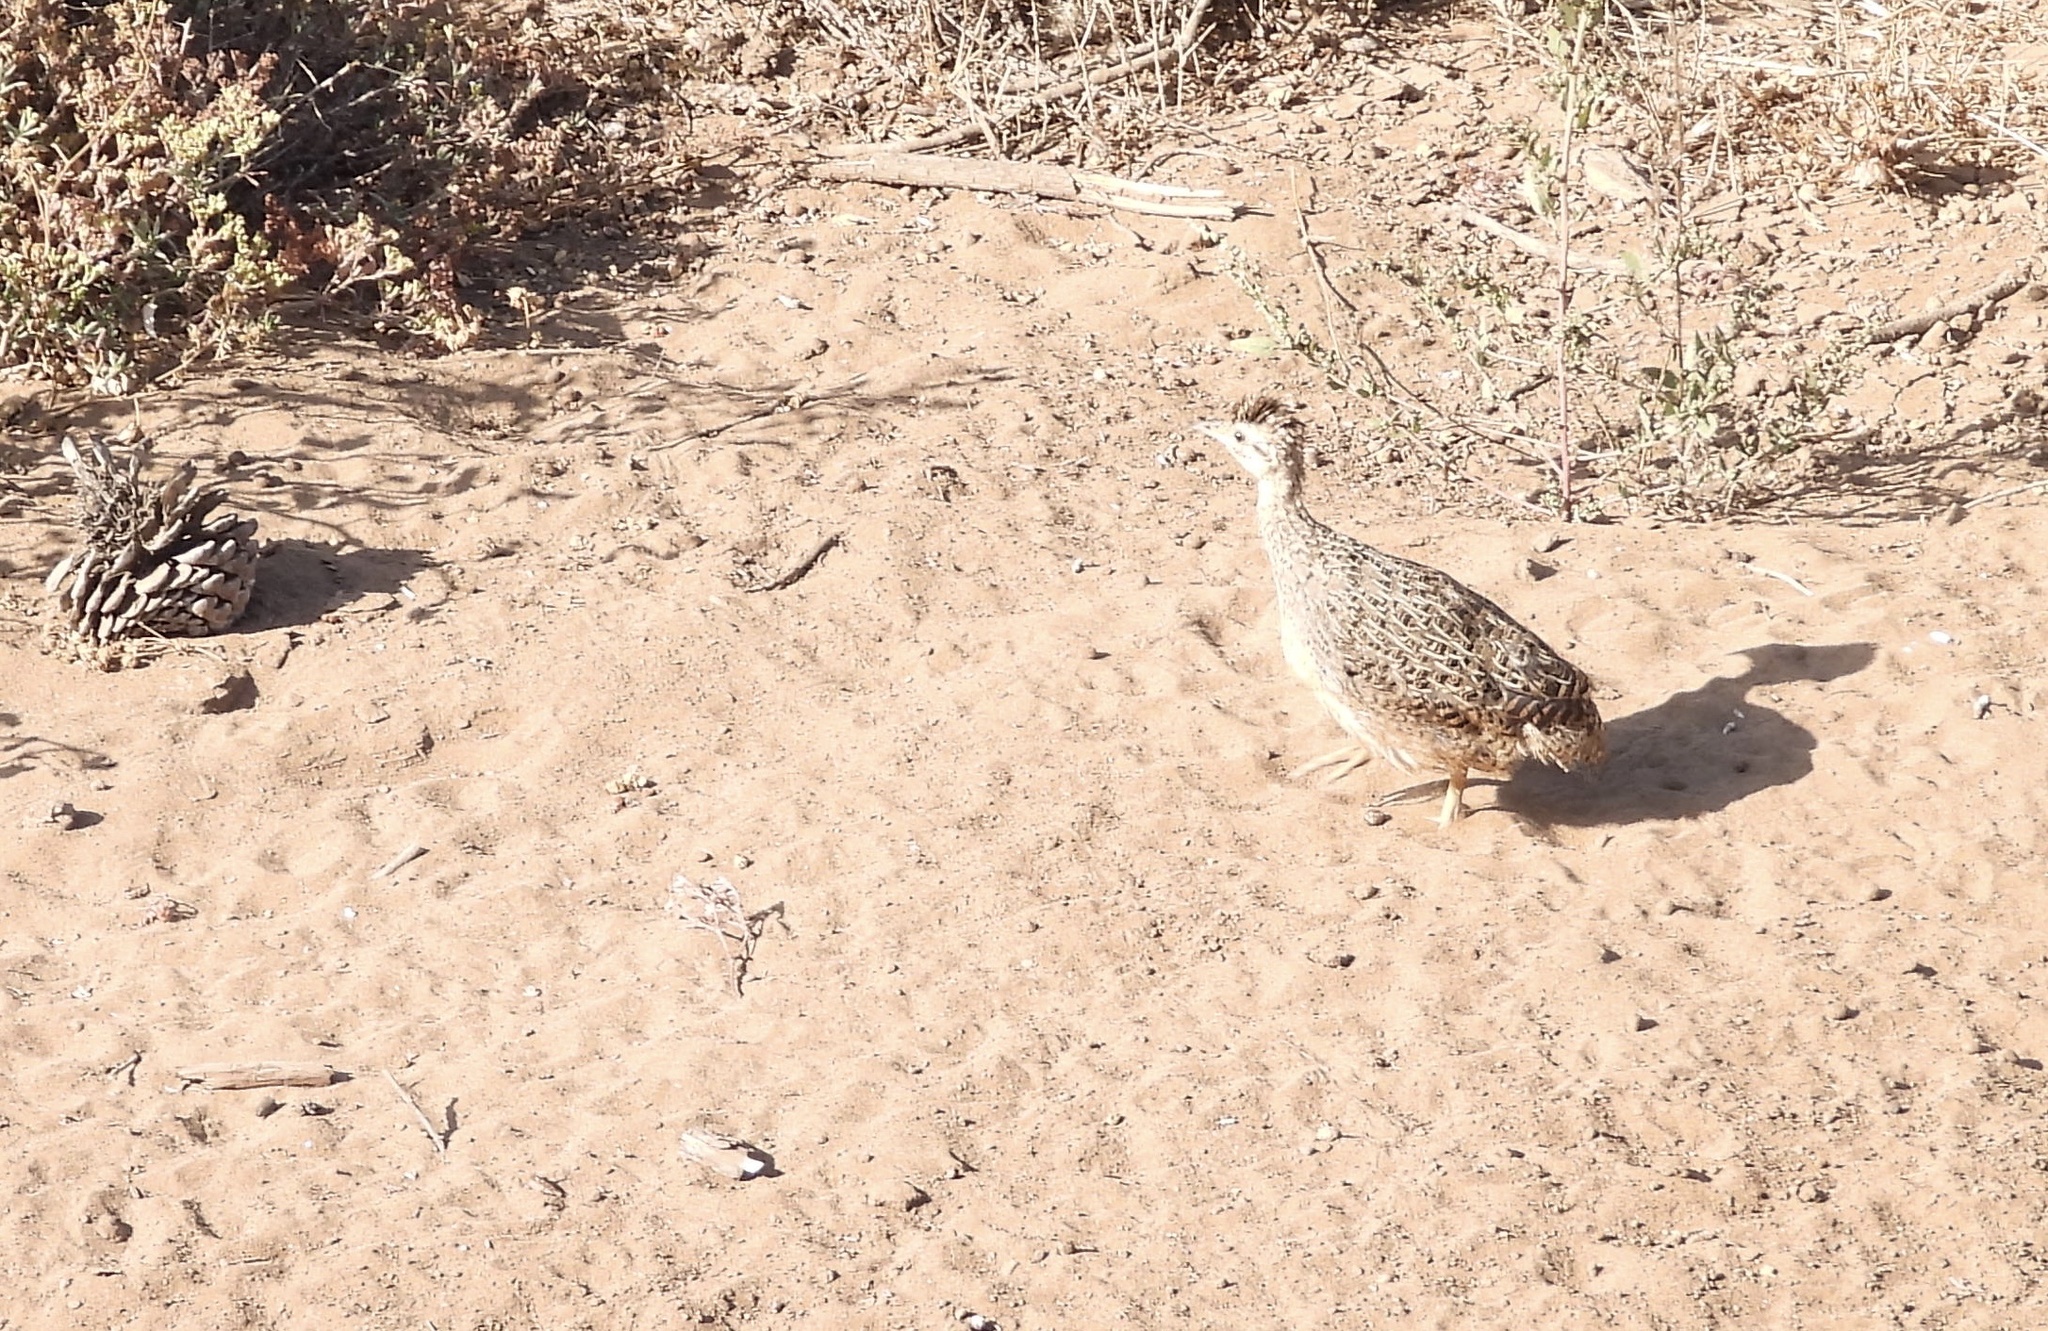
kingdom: Animalia
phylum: Chordata
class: Aves
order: Tinamiformes
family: Tinamidae
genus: Nothoprocta
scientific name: Nothoprocta perdicaria
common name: Chilean tinamou
